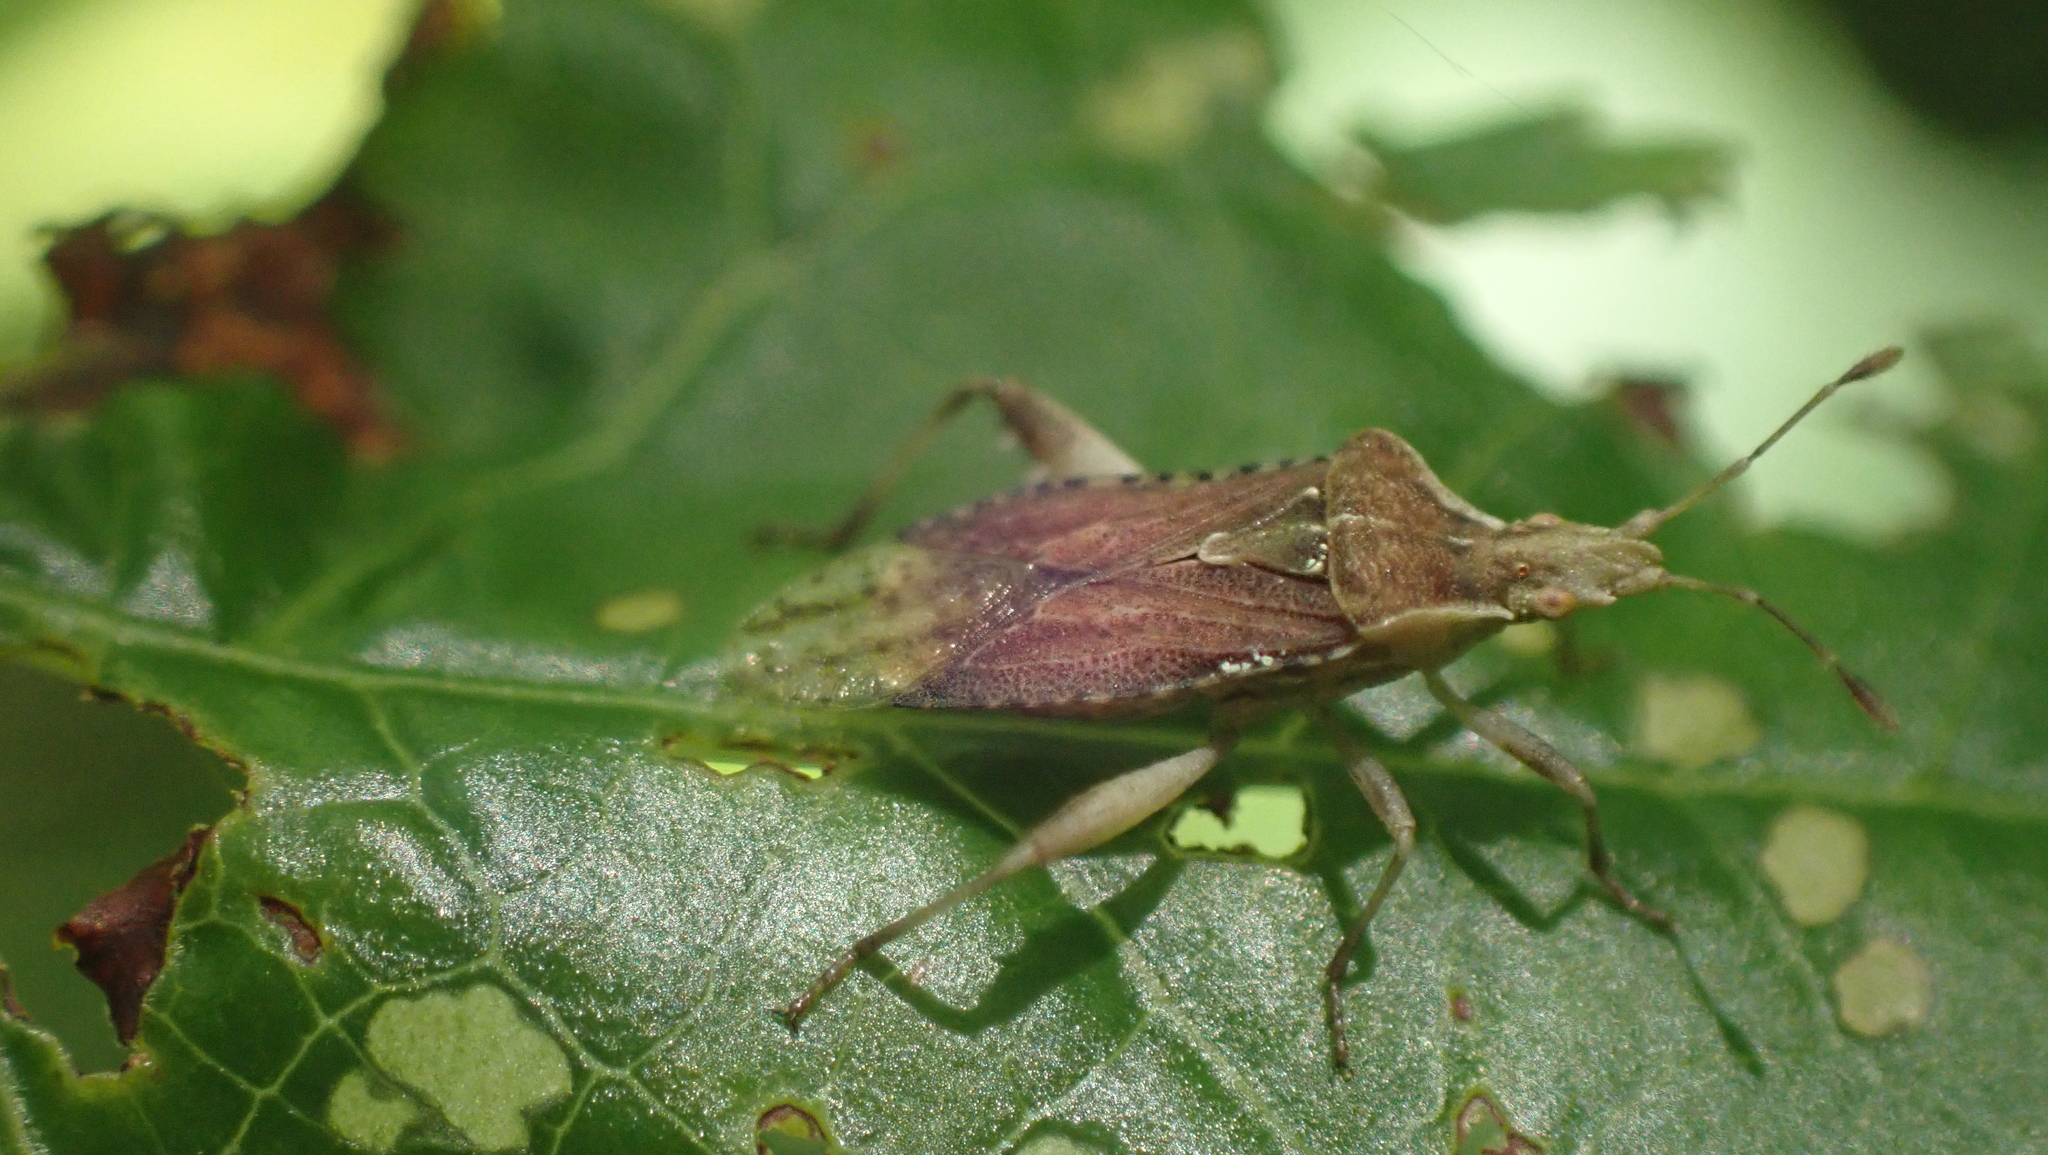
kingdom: Animalia
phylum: Arthropoda
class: Insecta
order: Hemiptera
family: Rhopalidae
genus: Harmostes
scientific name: Harmostes fraterculus
